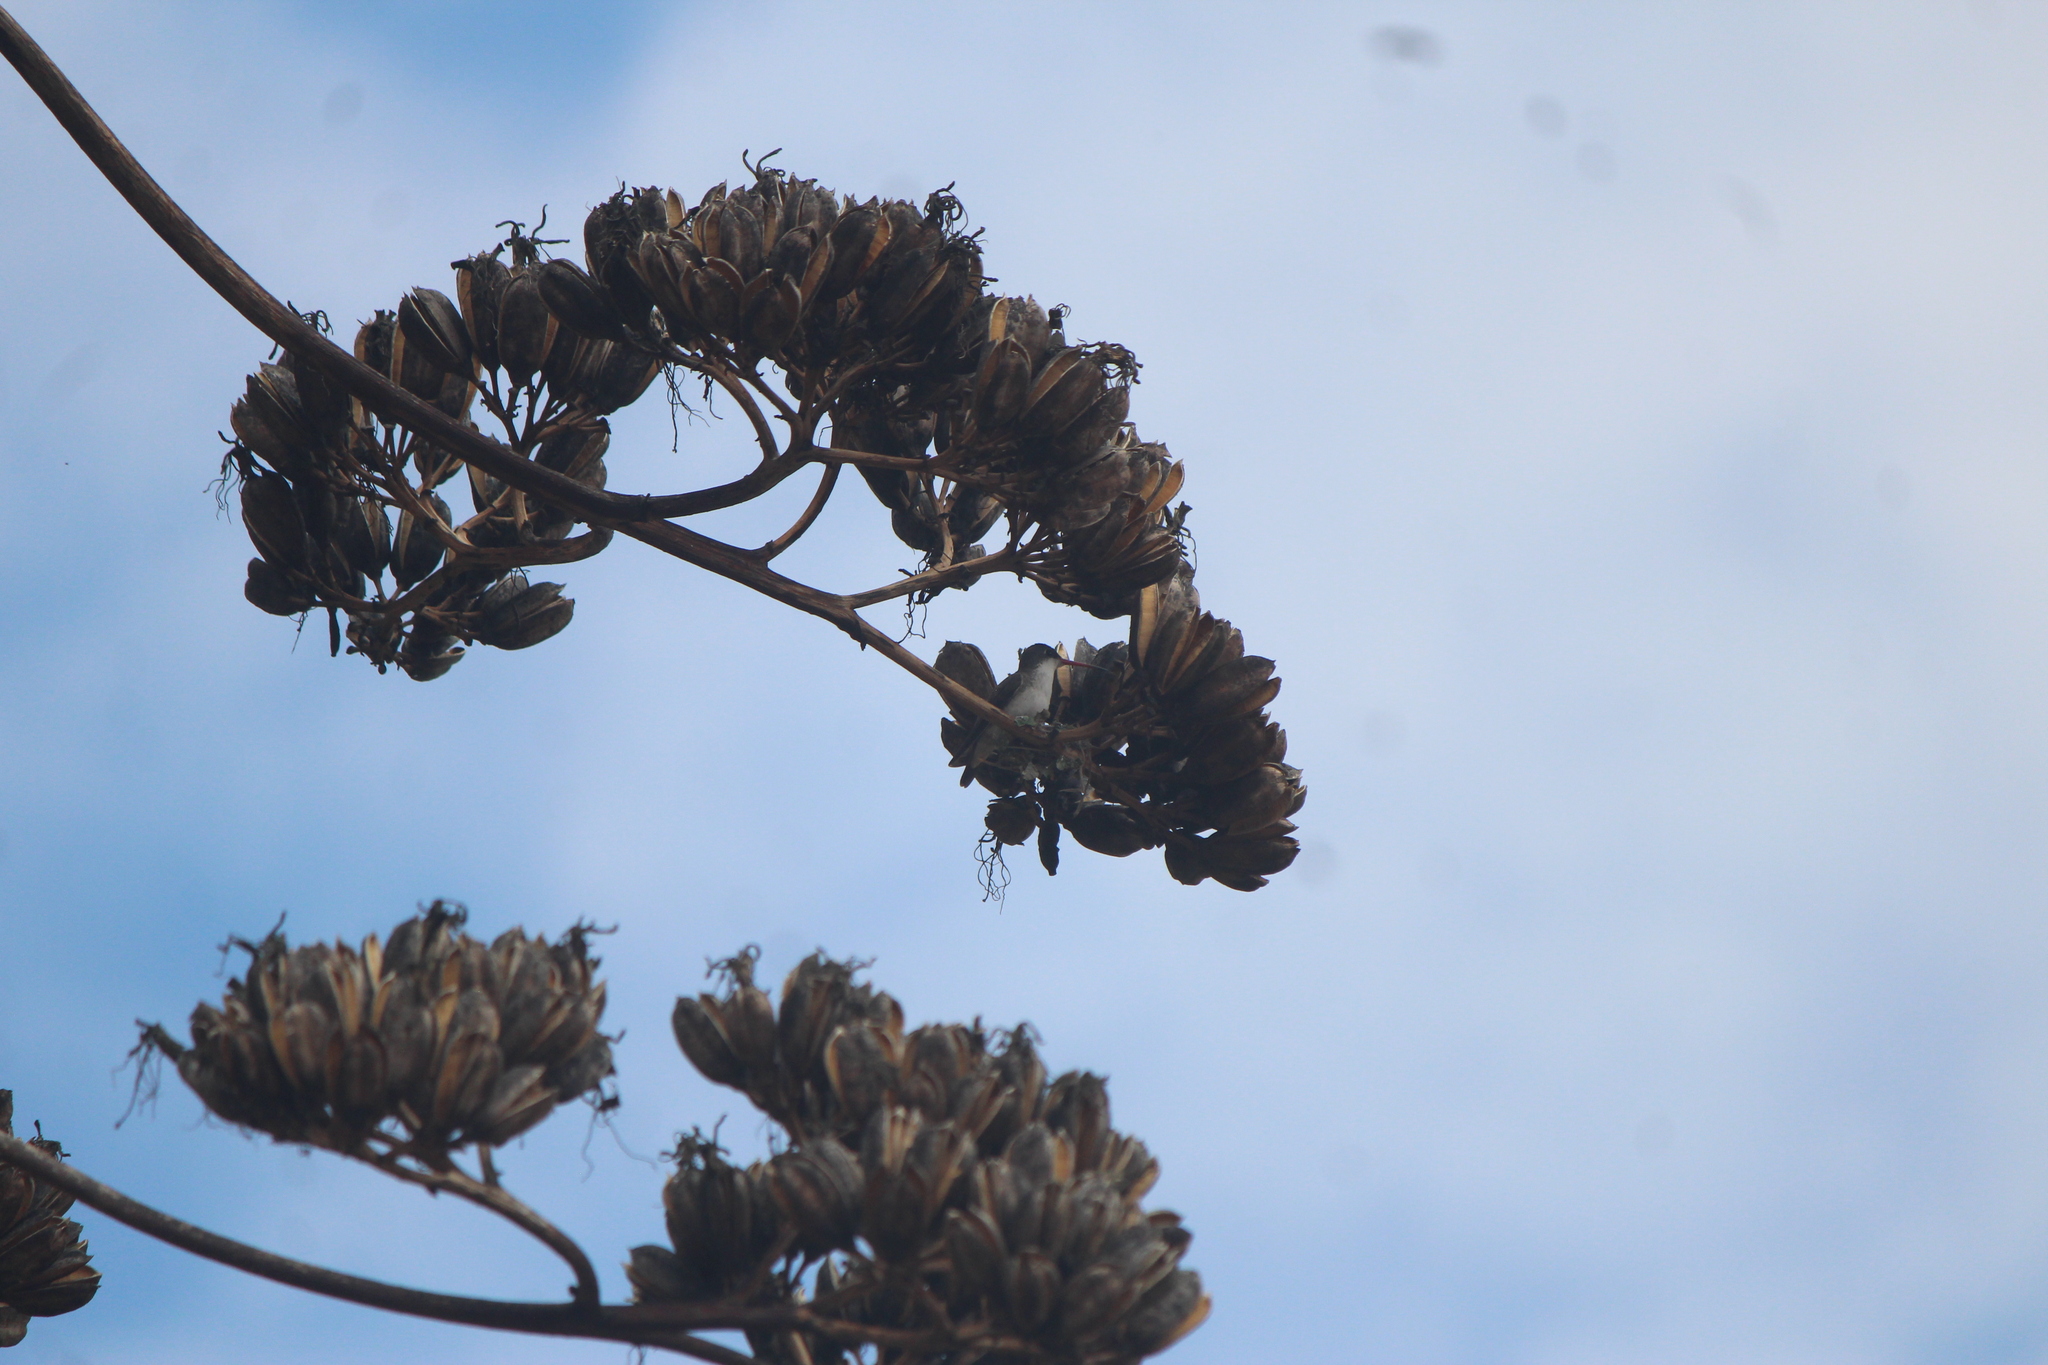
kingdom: Animalia
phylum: Chordata
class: Aves
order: Apodiformes
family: Trochilidae
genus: Leucolia
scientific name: Leucolia violiceps
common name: Violet-crowned hummingbird
